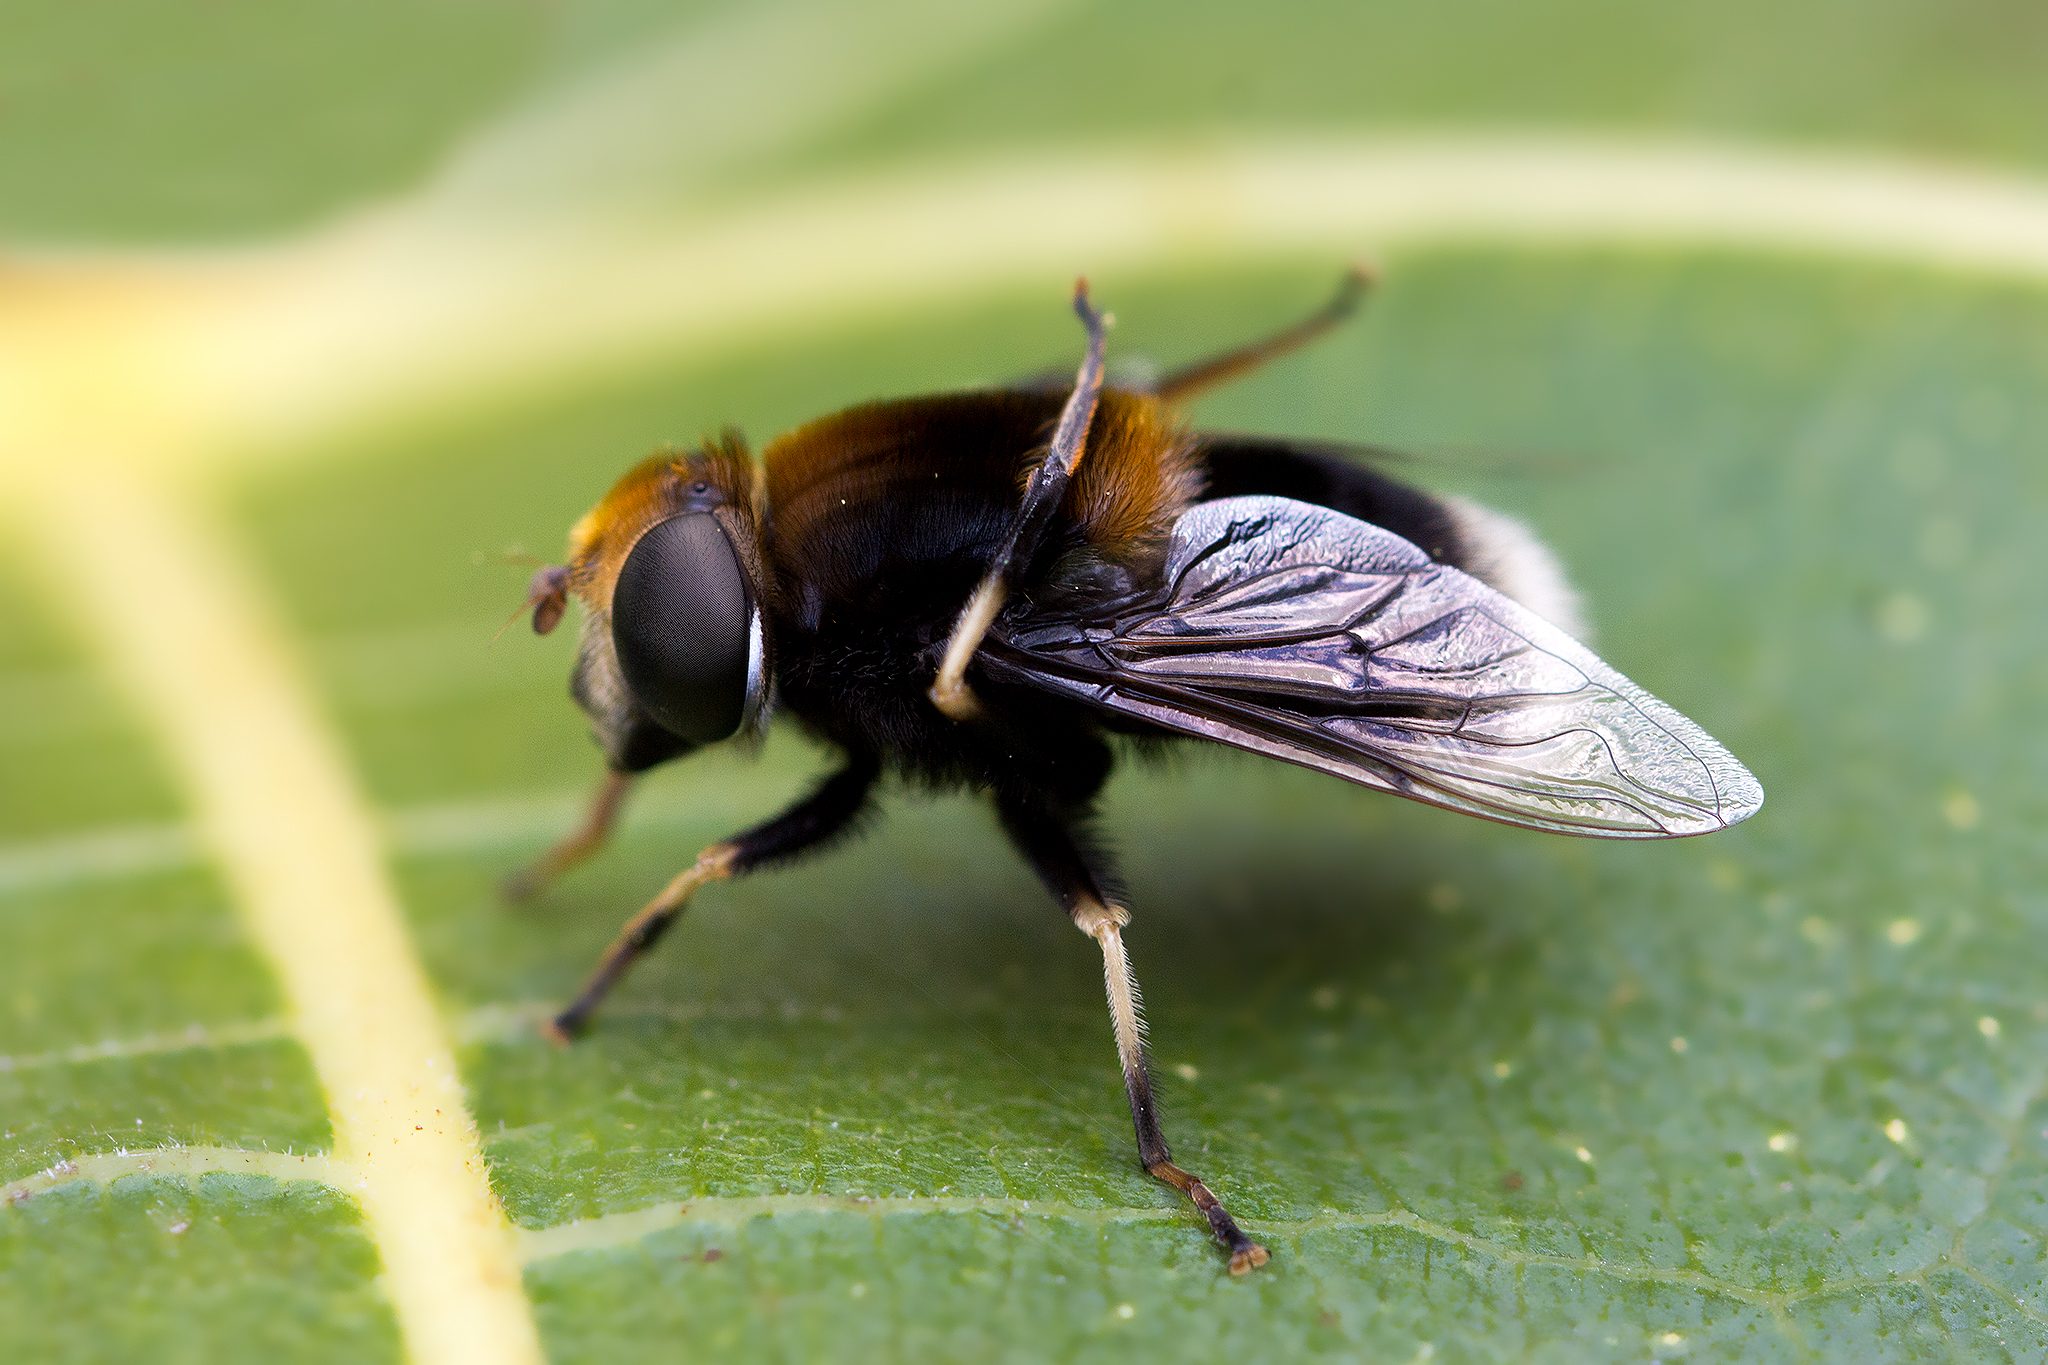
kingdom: Animalia
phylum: Arthropoda
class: Insecta
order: Diptera
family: Syrphidae
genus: Eristalis
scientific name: Eristalis intricaria
